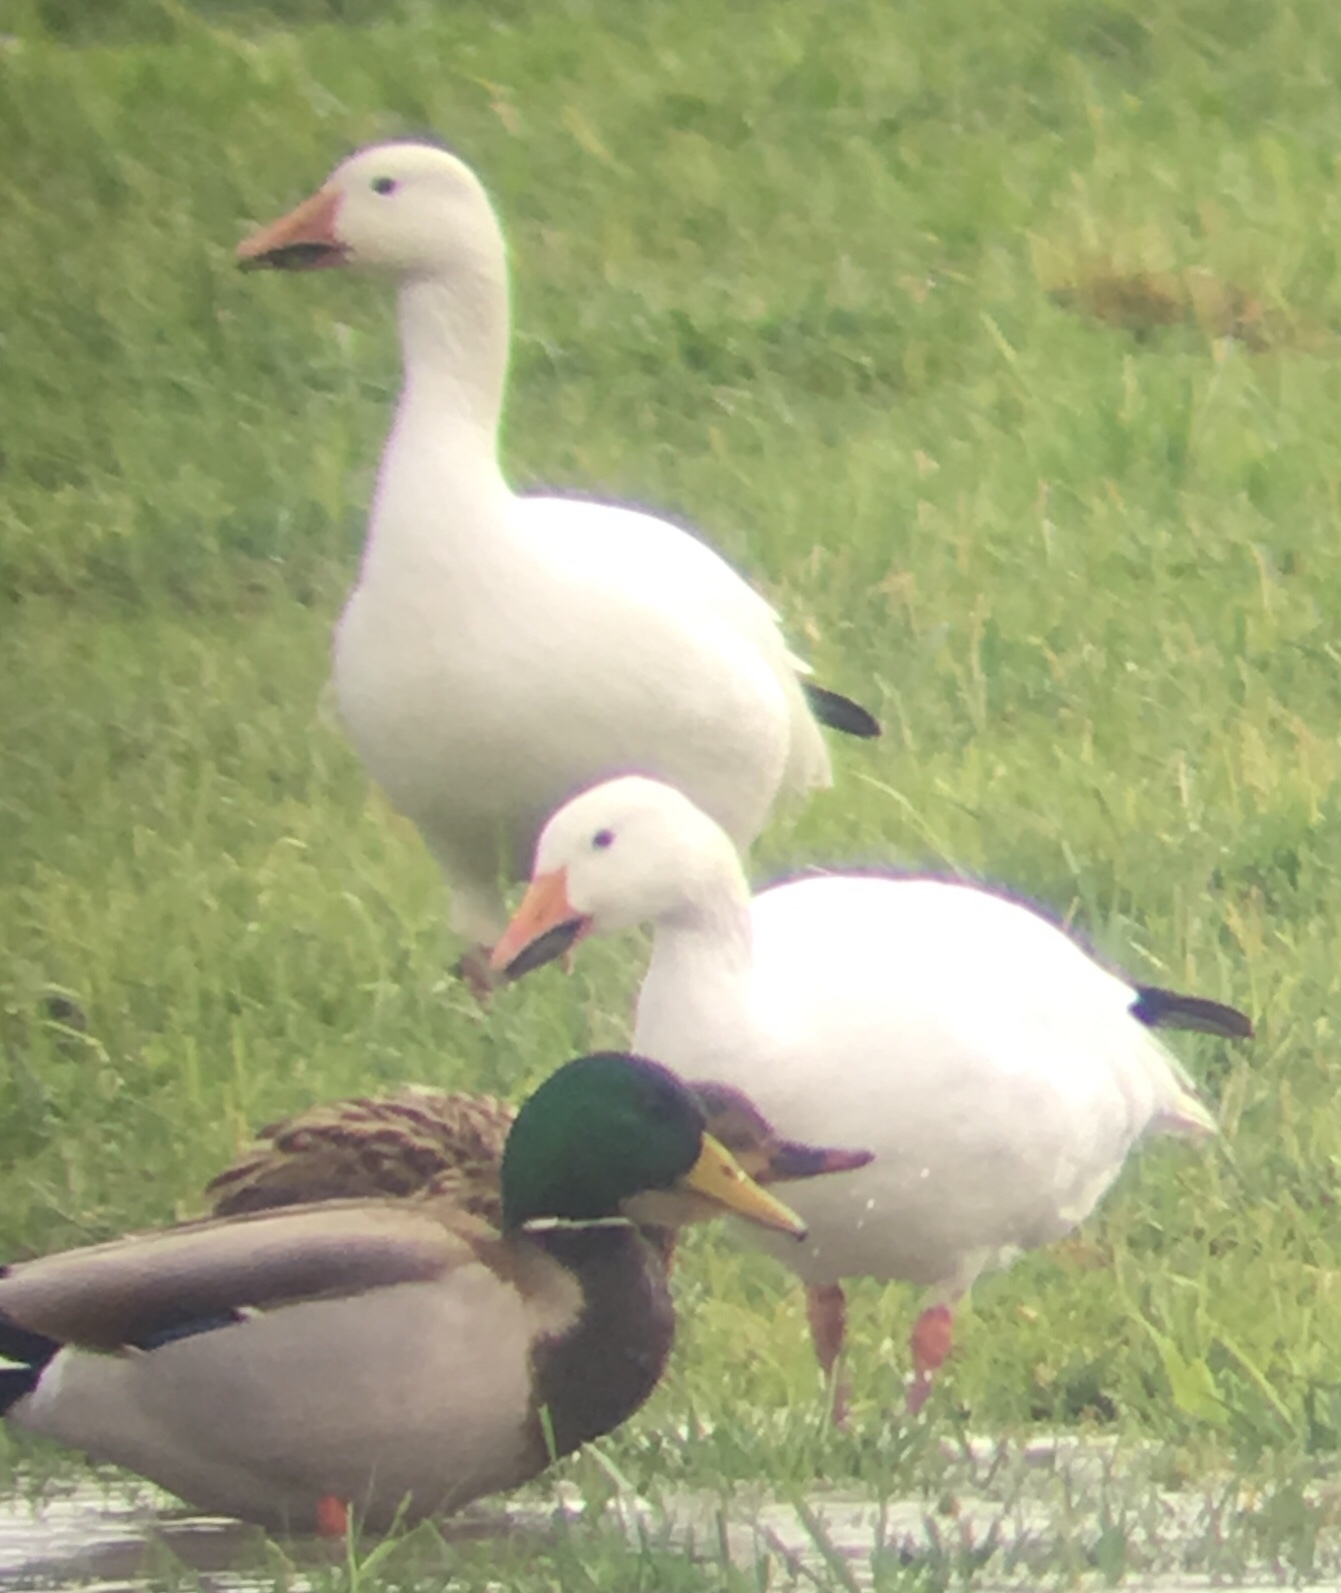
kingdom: Animalia
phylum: Chordata
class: Aves
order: Anseriformes
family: Anatidae
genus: Anser
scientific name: Anser caerulescens
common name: Snow goose
